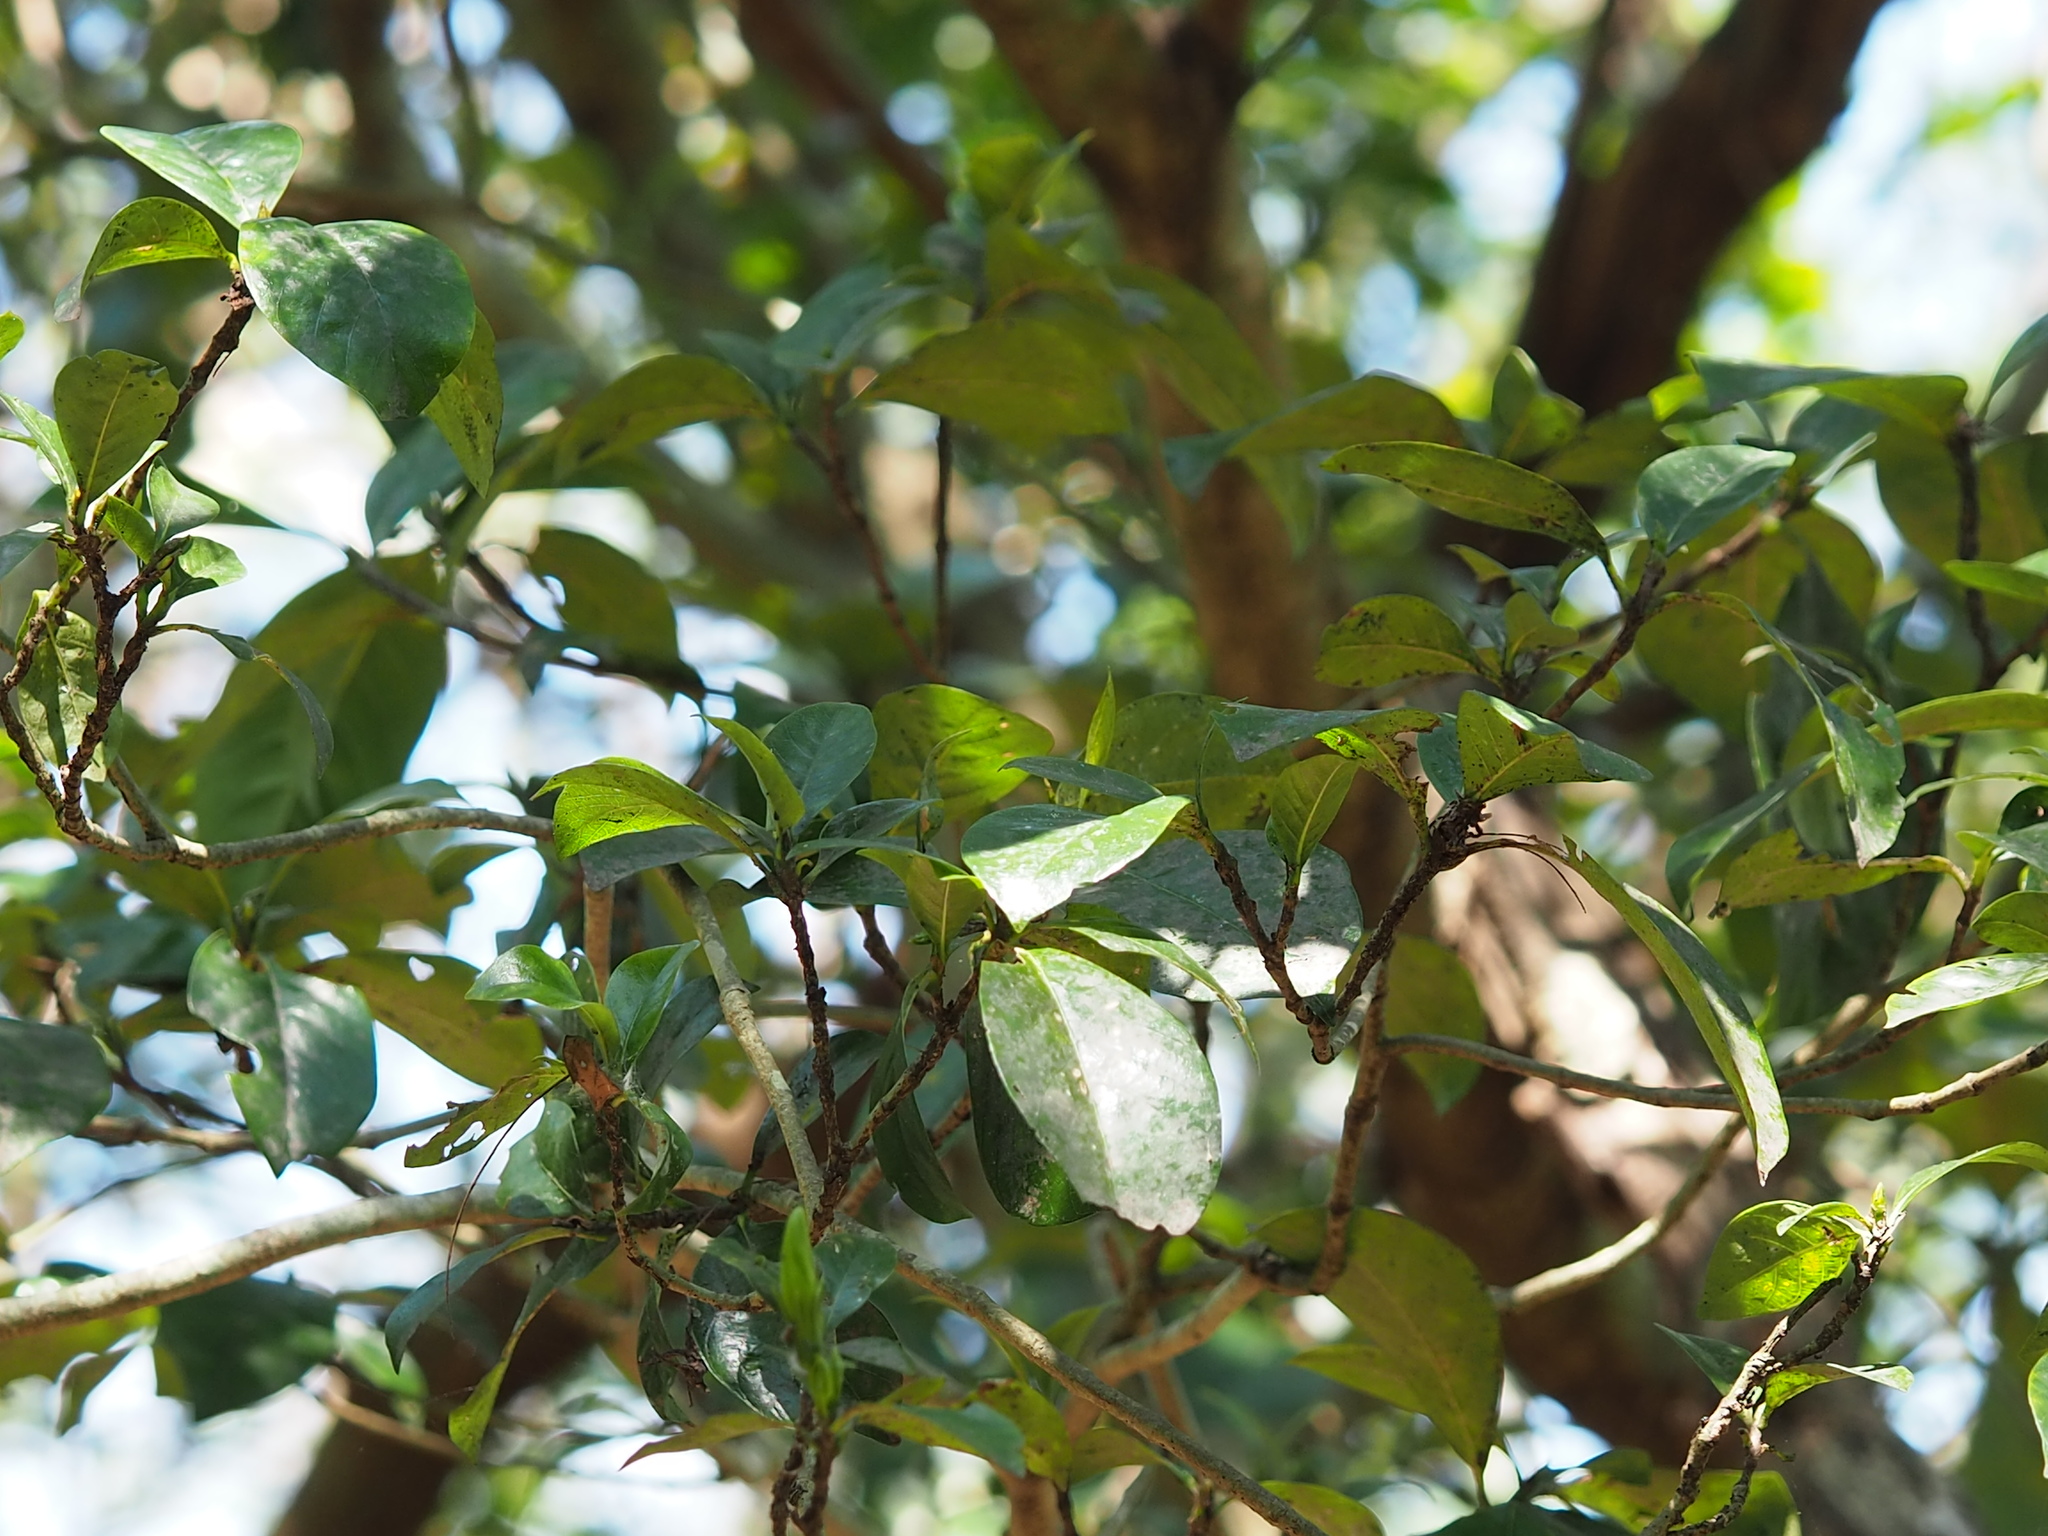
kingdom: Plantae
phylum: Tracheophyta
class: Magnoliopsida
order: Gentianales
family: Rubiaceae
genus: Gardenia
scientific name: Gardenia jasminoides
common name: Cape-jasmine
